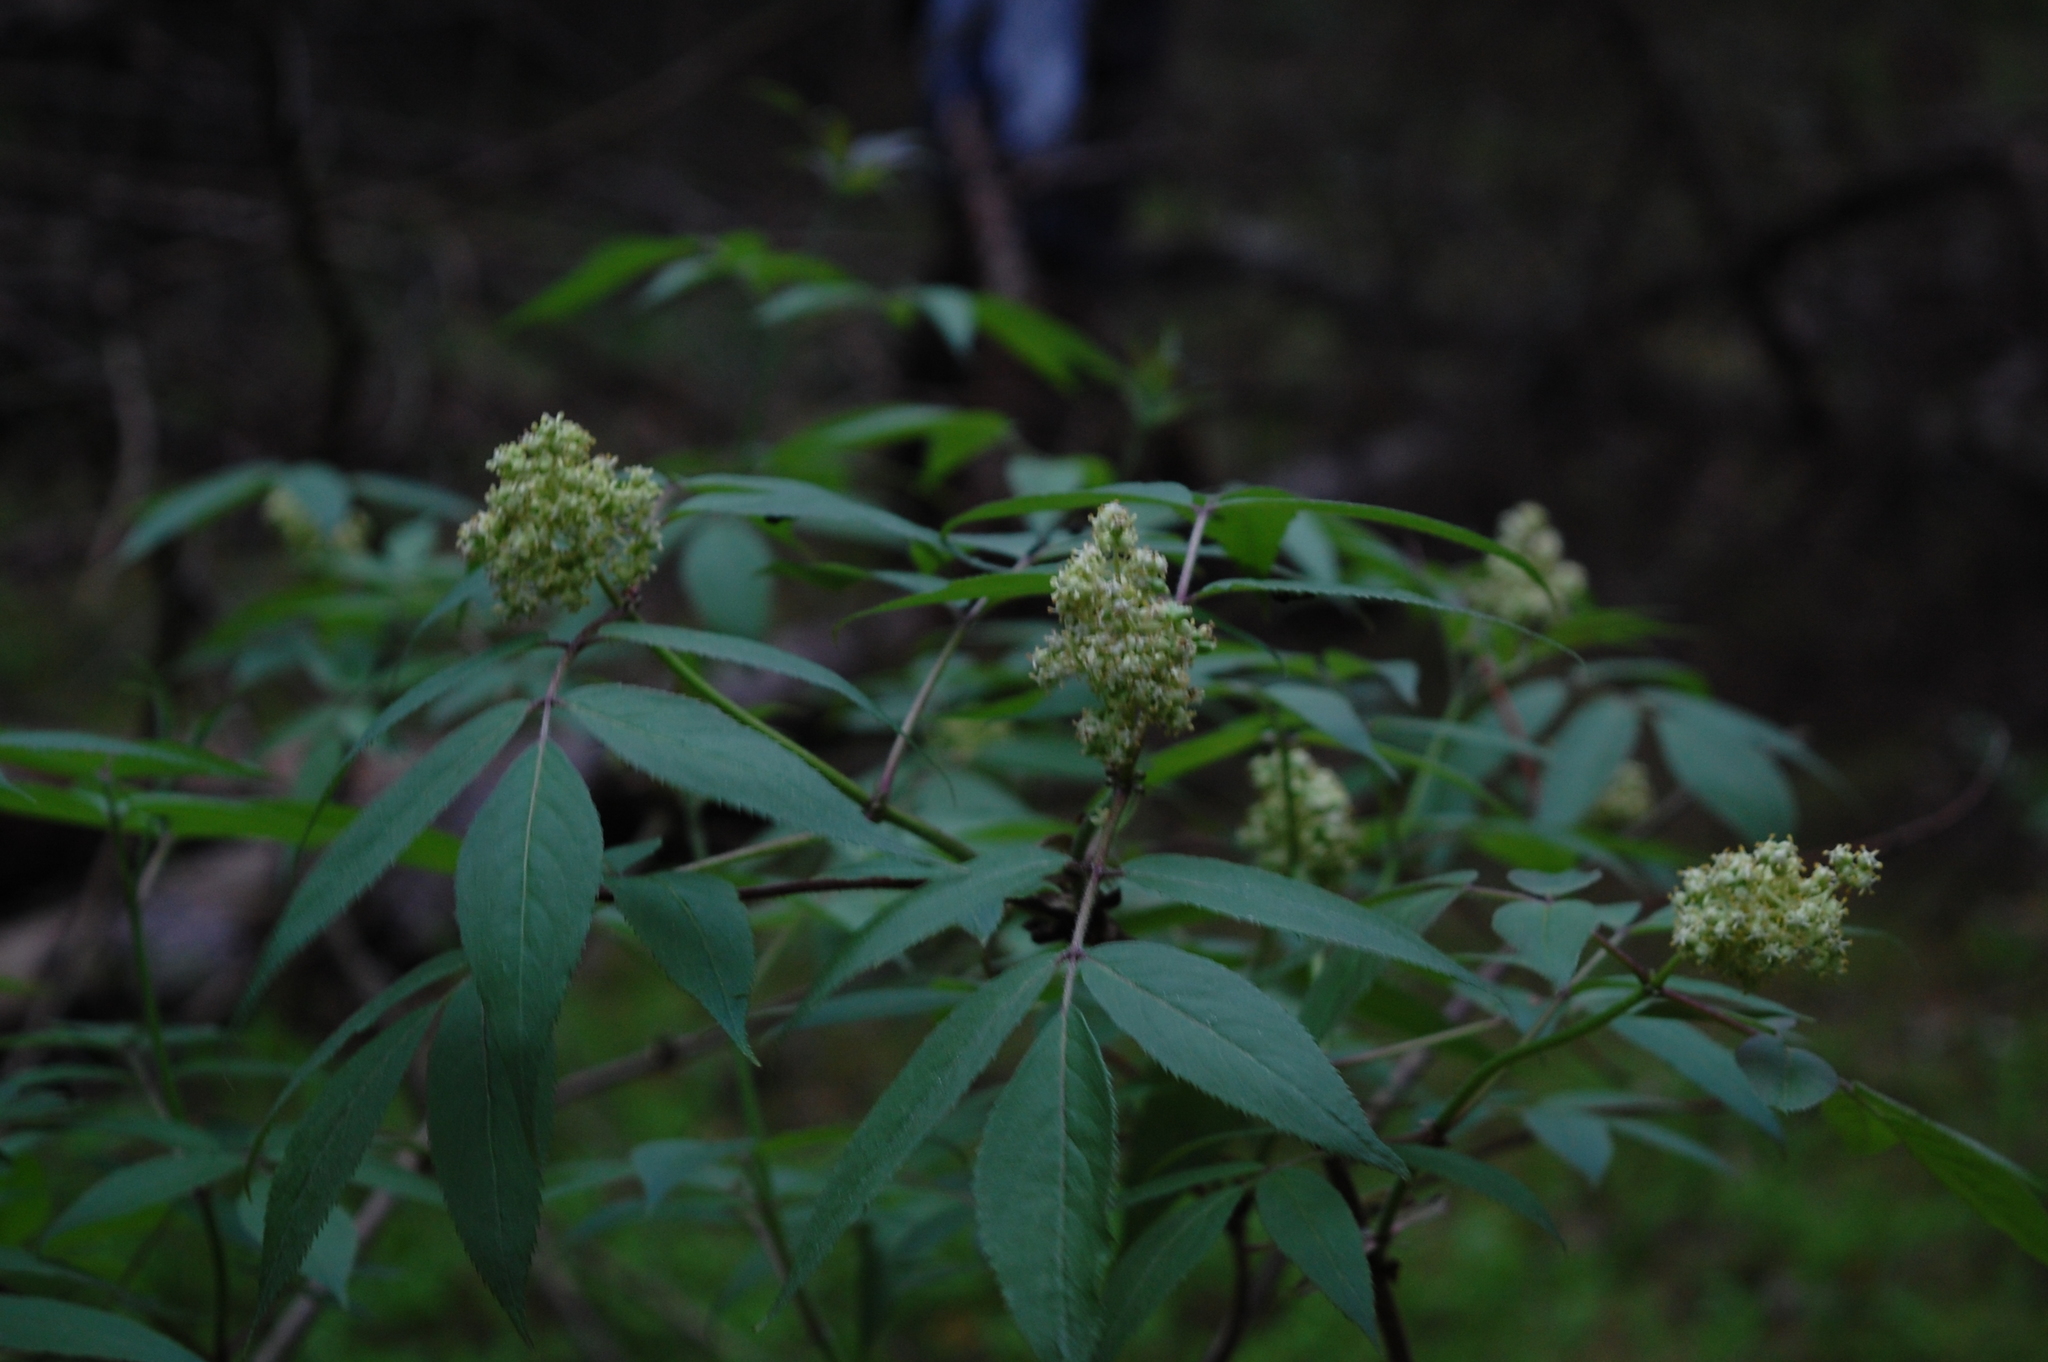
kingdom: Plantae
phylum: Tracheophyta
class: Magnoliopsida
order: Dipsacales
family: Viburnaceae
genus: Sambucus
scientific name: Sambucus racemosa
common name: Red-berried elder
